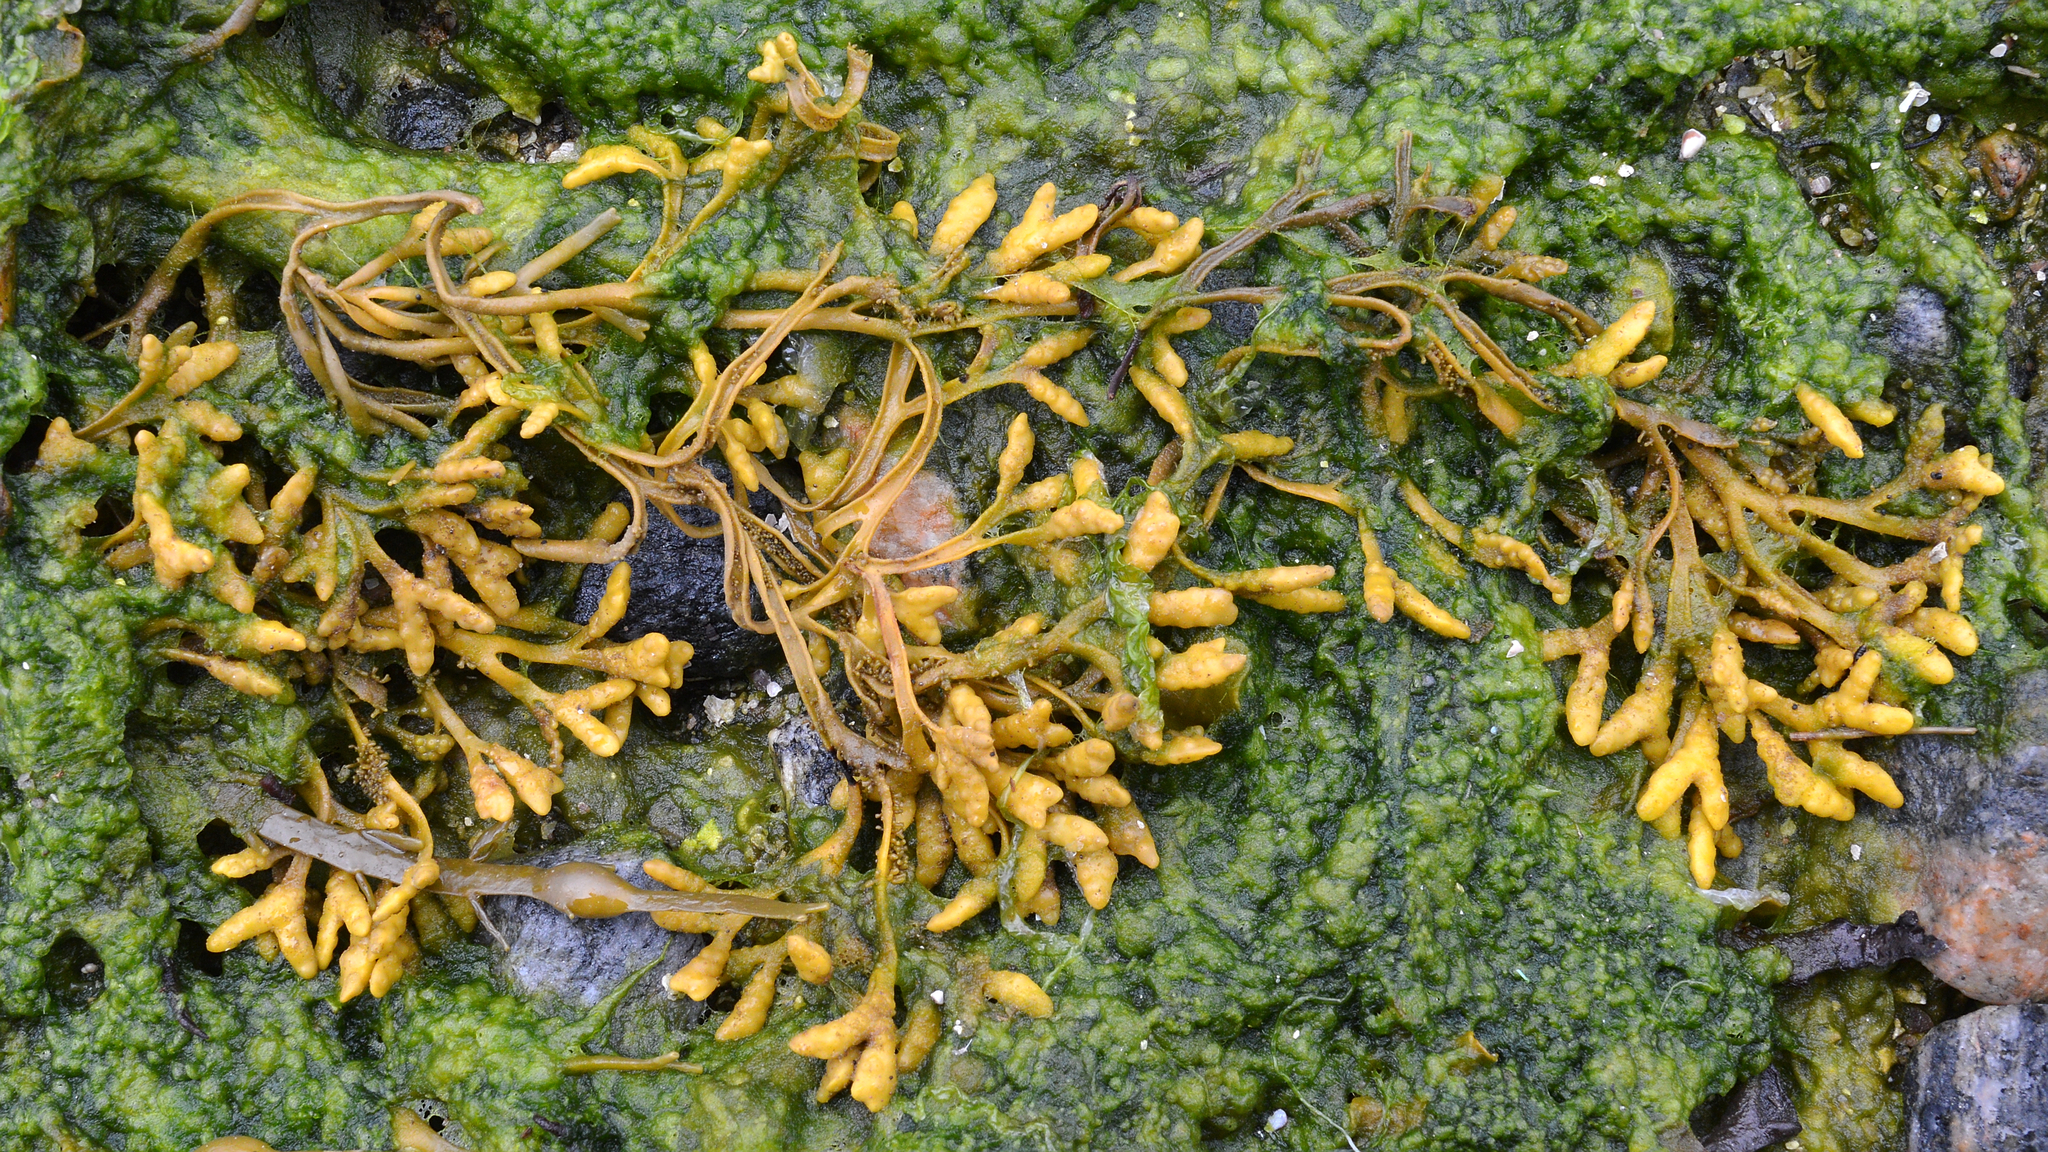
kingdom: Chromista
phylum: Ochrophyta
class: Phaeophyceae
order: Fucales
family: Fucaceae
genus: Pelvetia
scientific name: Pelvetia canaliculata
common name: Channelled wrack
